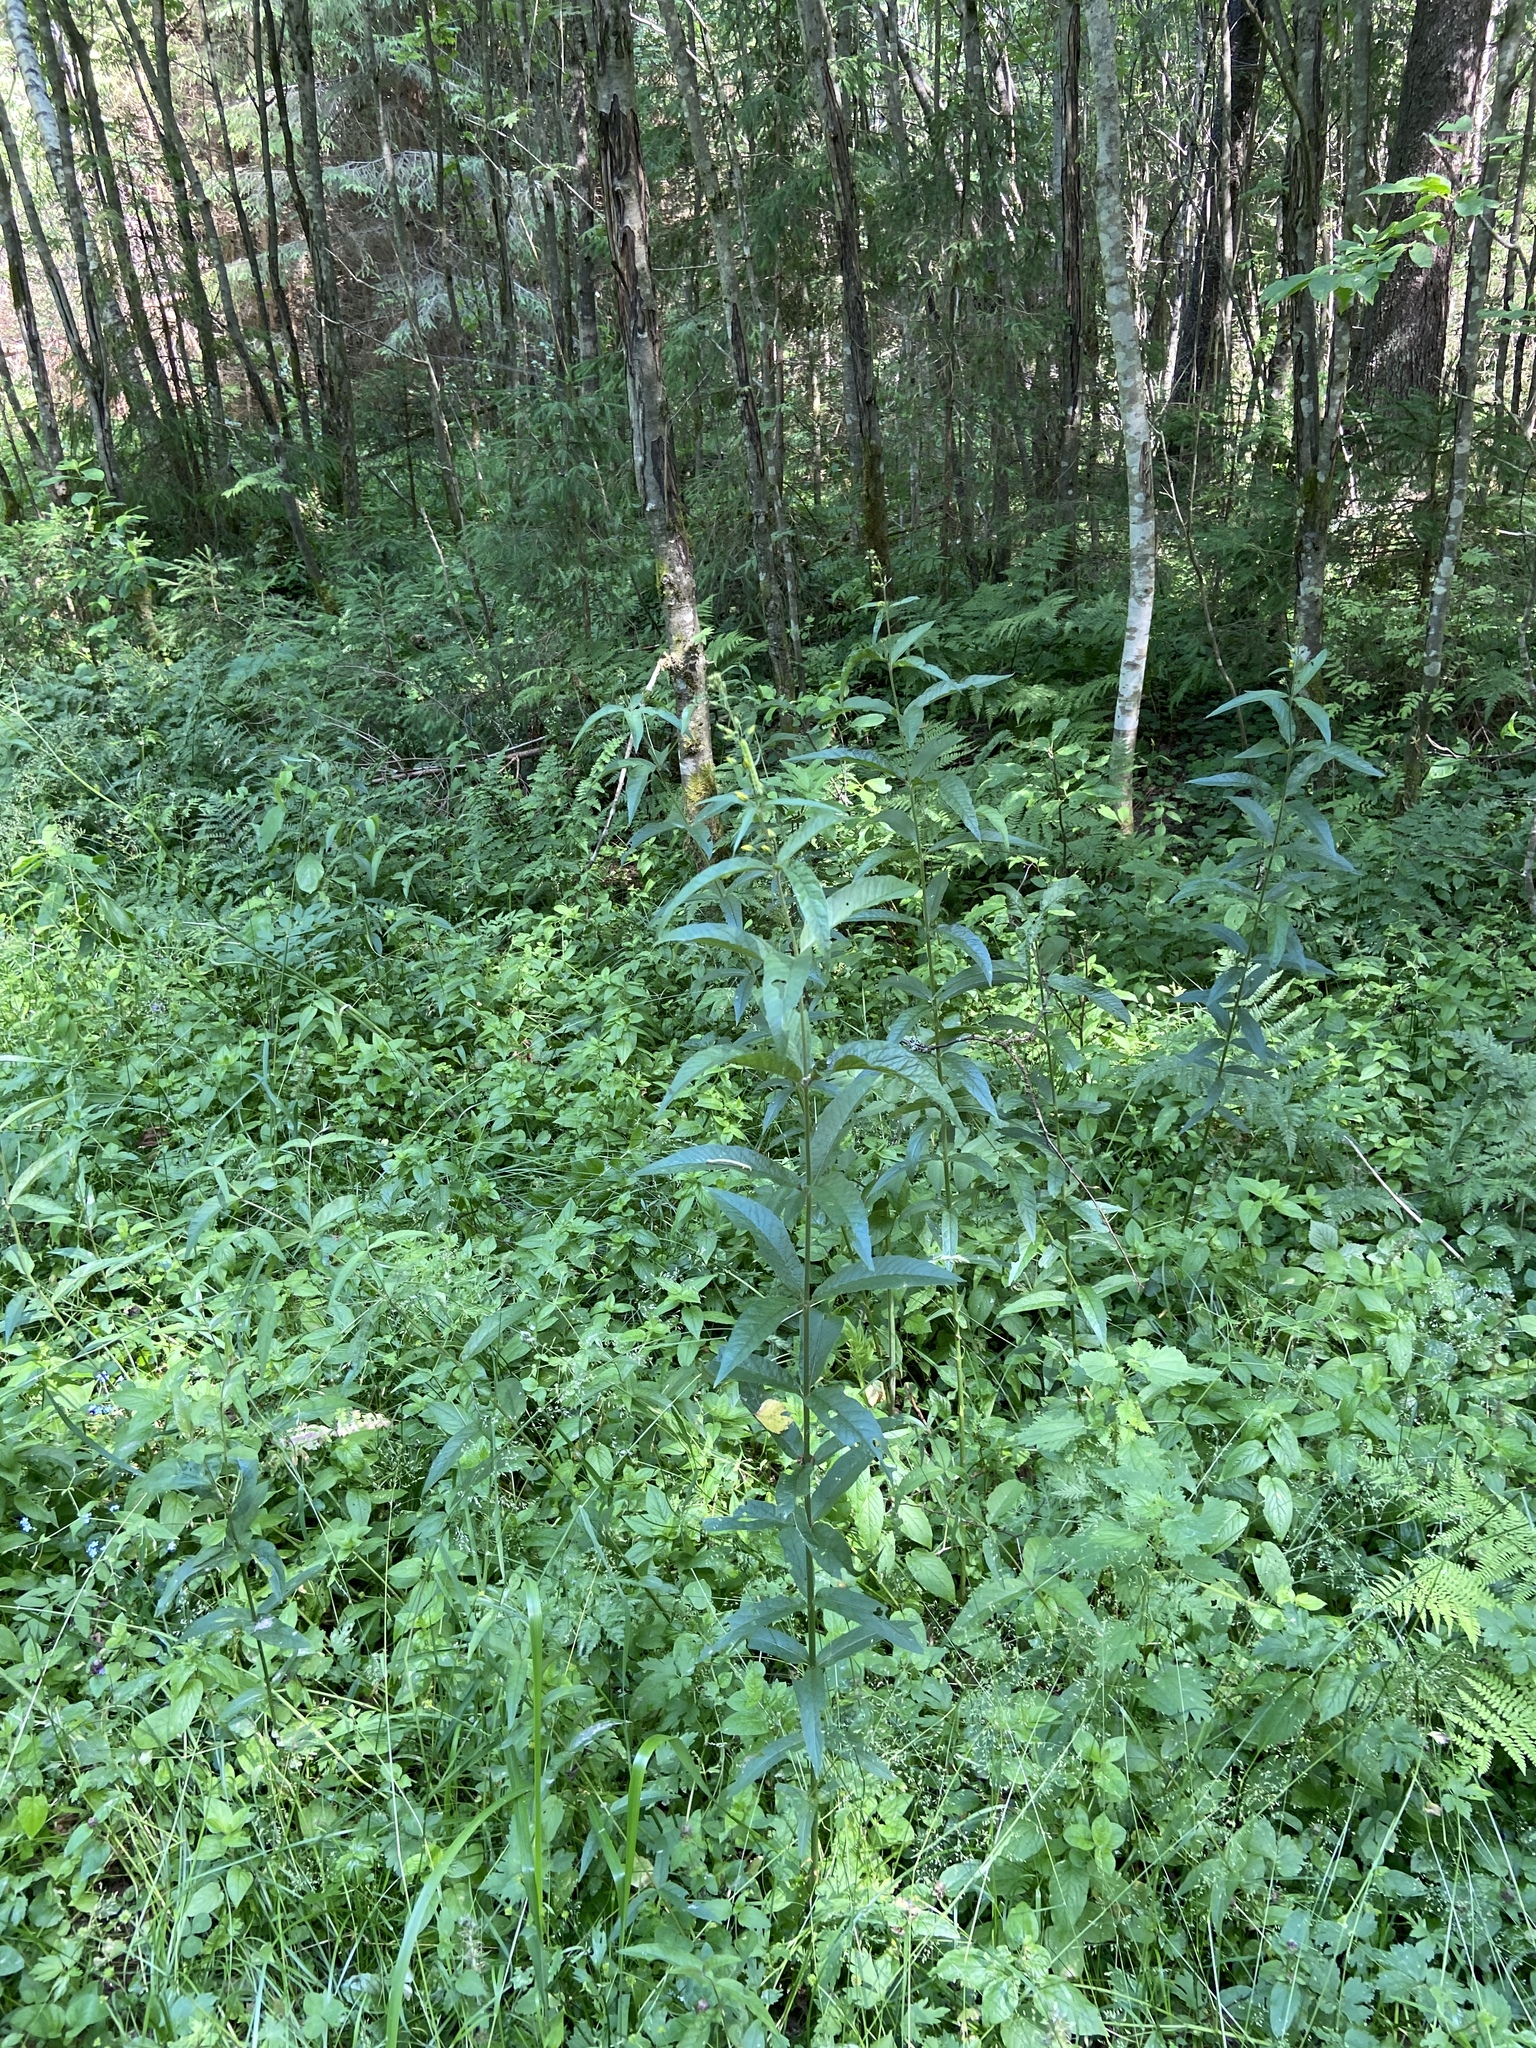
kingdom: Plantae
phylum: Tracheophyta
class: Magnoliopsida
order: Ericales
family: Primulaceae
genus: Lysimachia
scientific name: Lysimachia vulgaris
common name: Yellow loosestrife
